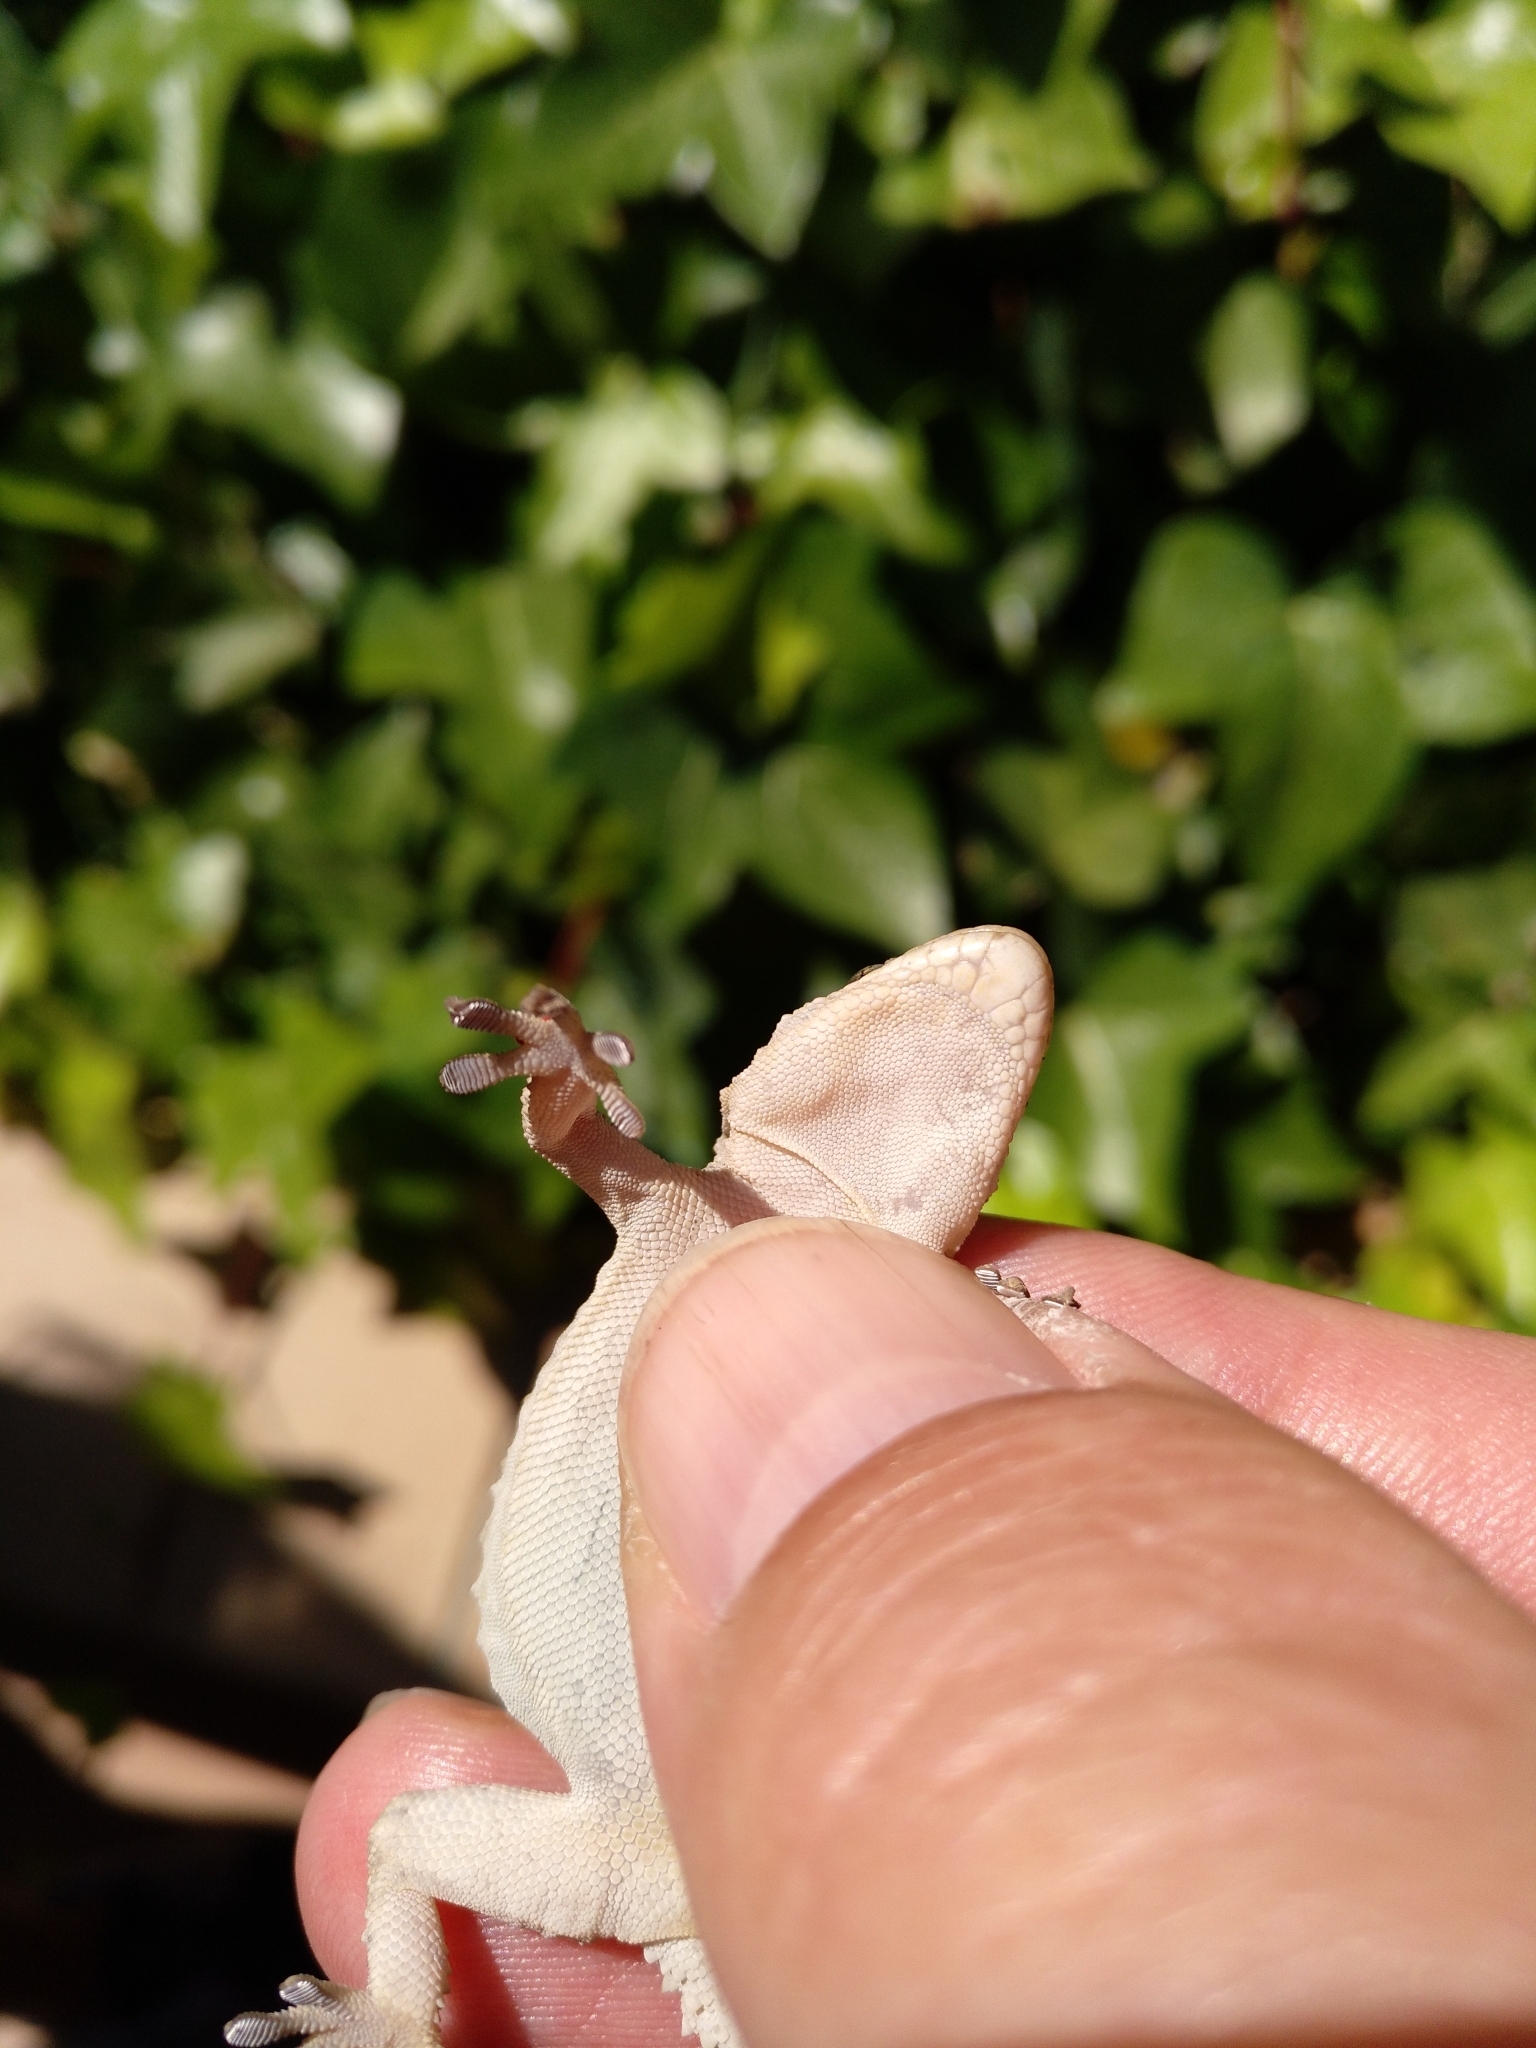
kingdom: Animalia
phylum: Chordata
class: Squamata
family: Phyllodactylidae
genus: Tarentola
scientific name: Tarentola mauritanica
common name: Moorish gecko
